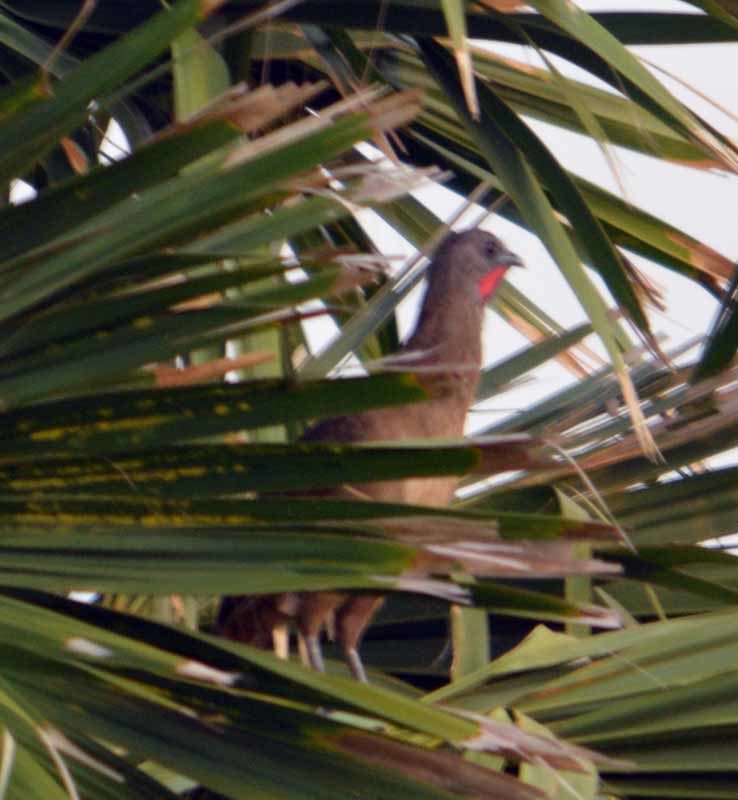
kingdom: Animalia
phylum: Chordata
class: Aves
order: Galliformes
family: Cracidae
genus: Ortalis
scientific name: Ortalis vetula
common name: Plain chachalaca
